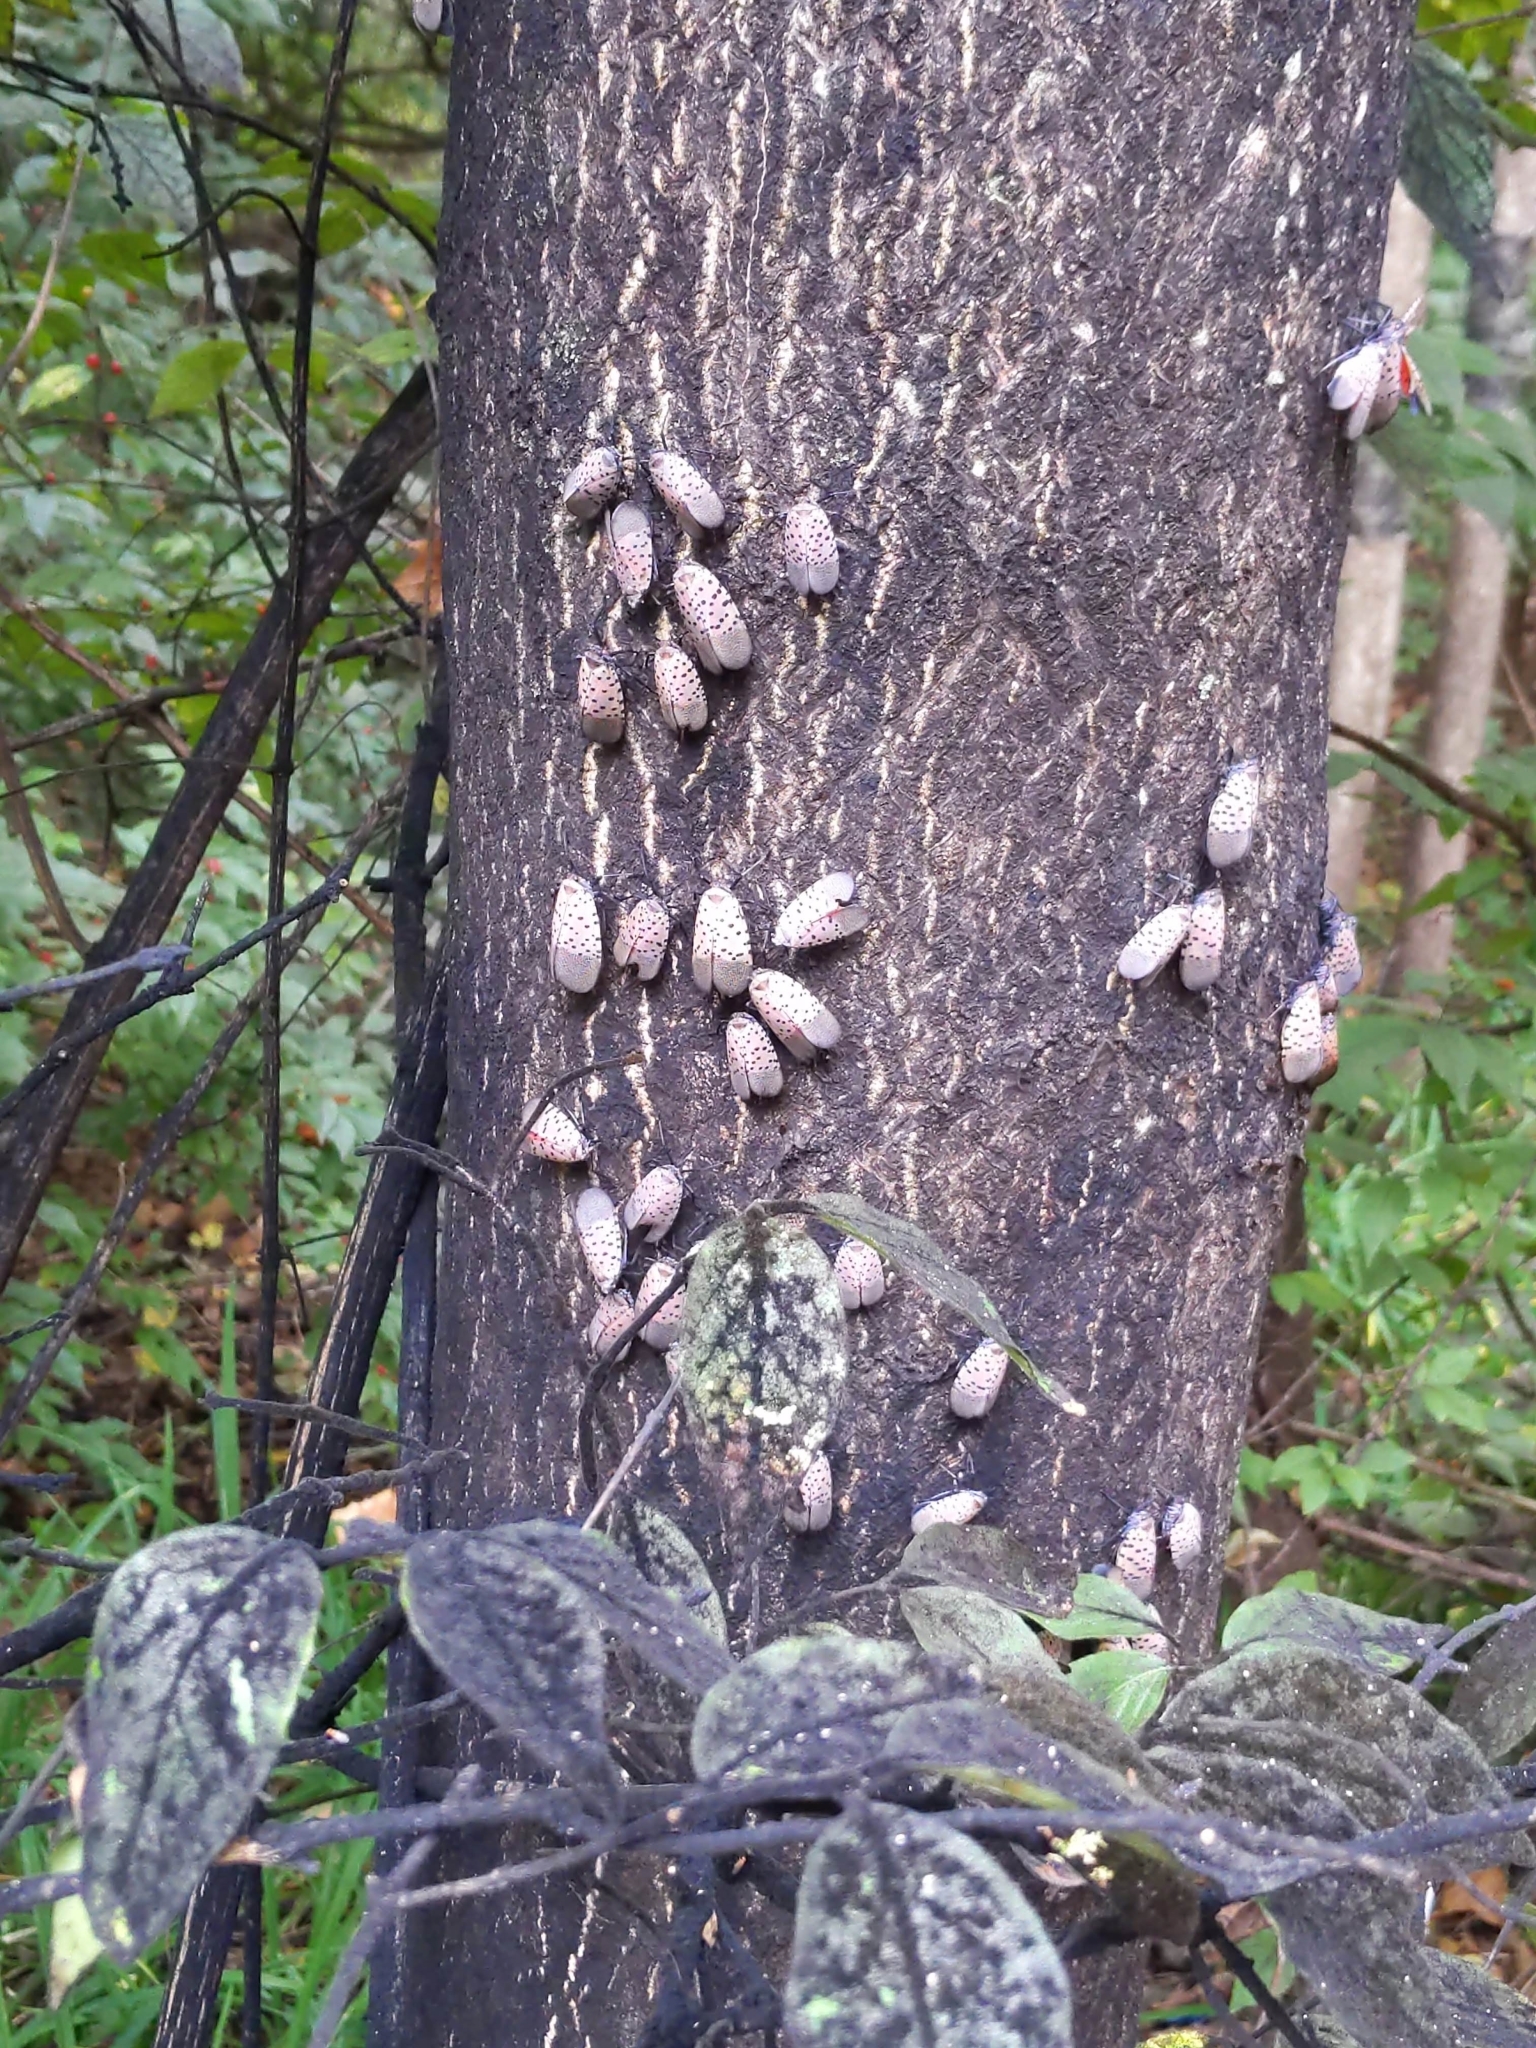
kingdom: Animalia
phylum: Arthropoda
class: Insecta
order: Hemiptera
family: Fulgoridae
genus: Lycorma
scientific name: Lycorma delicatula
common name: Spotted lanternfly
